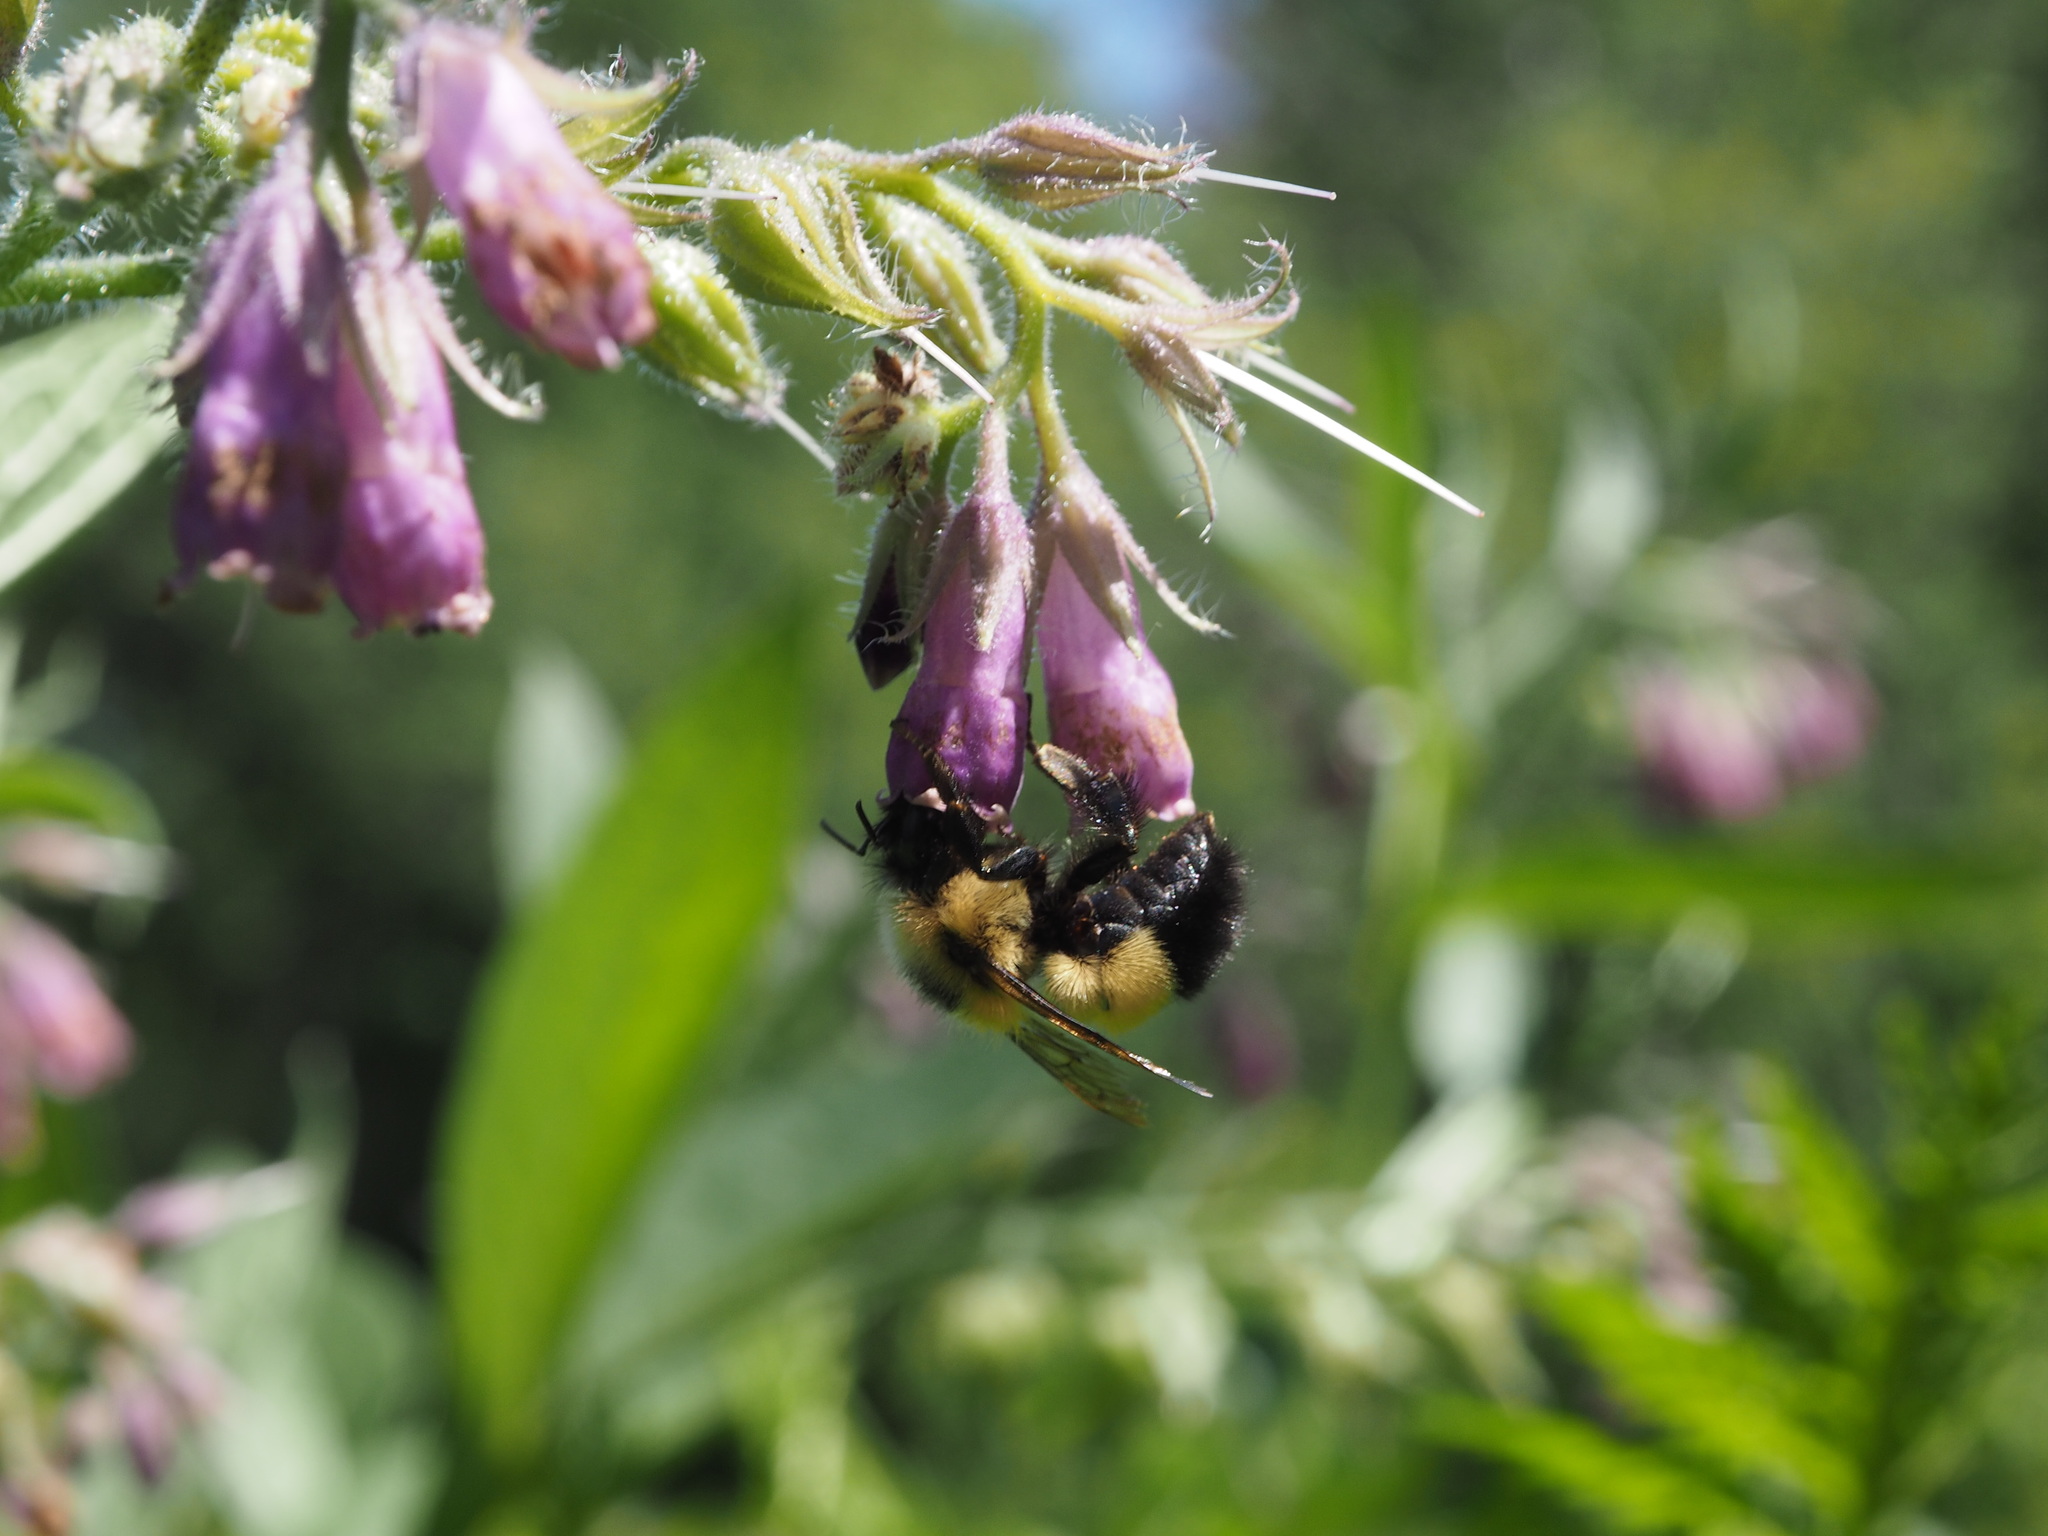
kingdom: Animalia
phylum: Arthropoda
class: Insecta
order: Hymenoptera
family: Apidae
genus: Pyrobombus
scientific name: Pyrobombus
